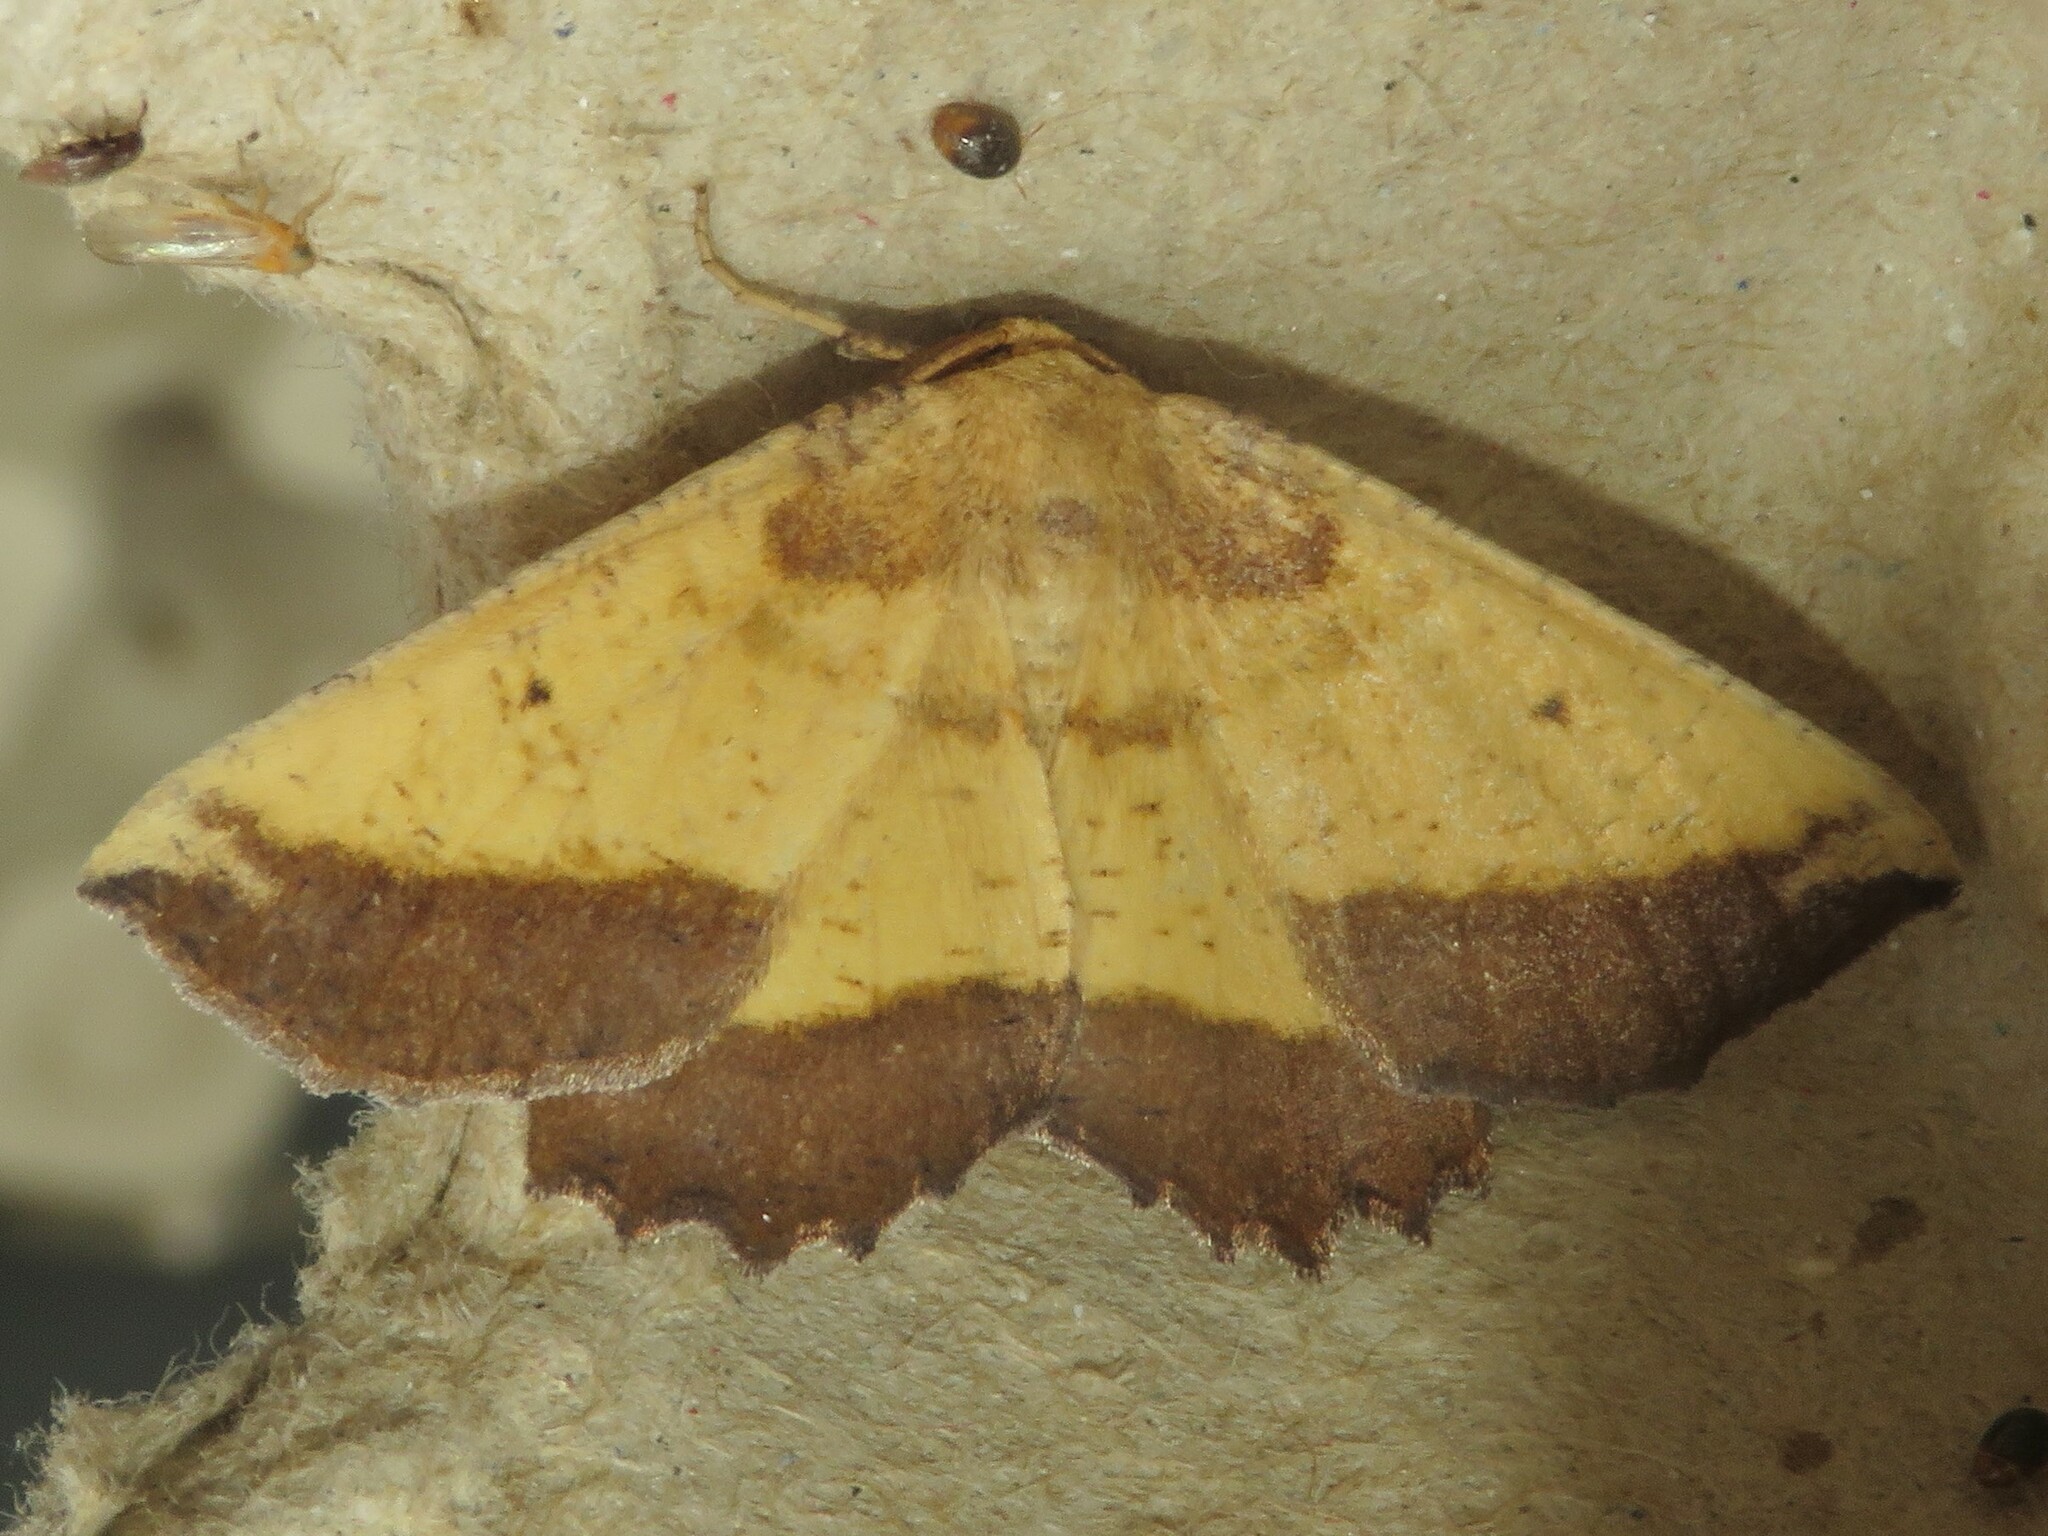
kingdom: Animalia
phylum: Arthropoda
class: Insecta
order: Lepidoptera
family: Geometridae
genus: Euchlaena
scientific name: Euchlaena serrata
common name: Saw wing
